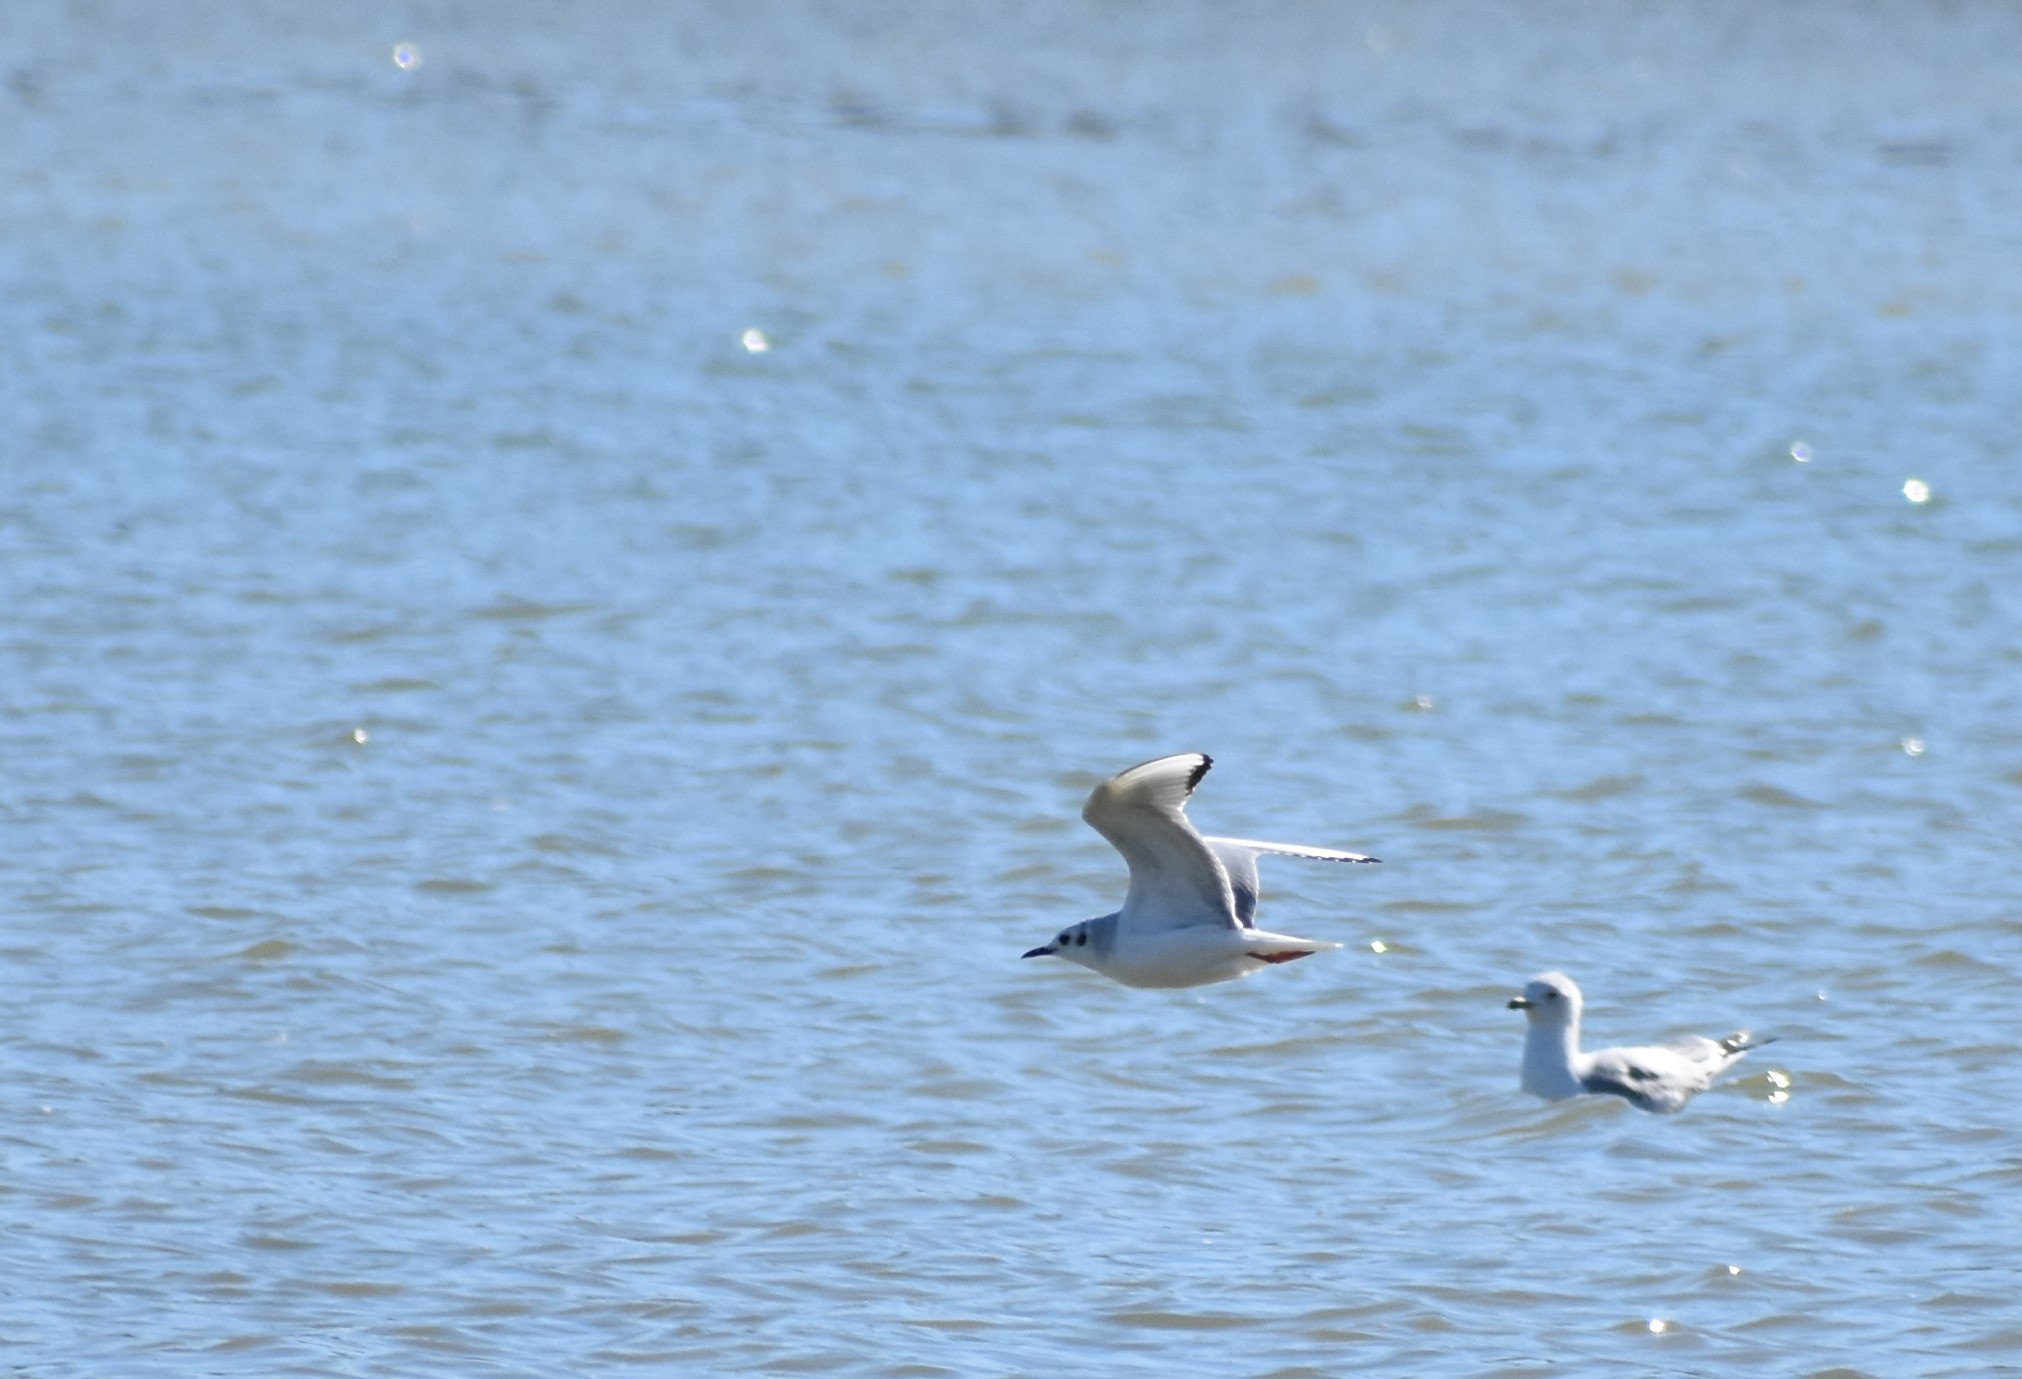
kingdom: Animalia
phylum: Chordata
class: Aves
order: Charadriiformes
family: Laridae
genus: Chroicocephalus
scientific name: Chroicocephalus philadelphia
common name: Bonaparte's gull
